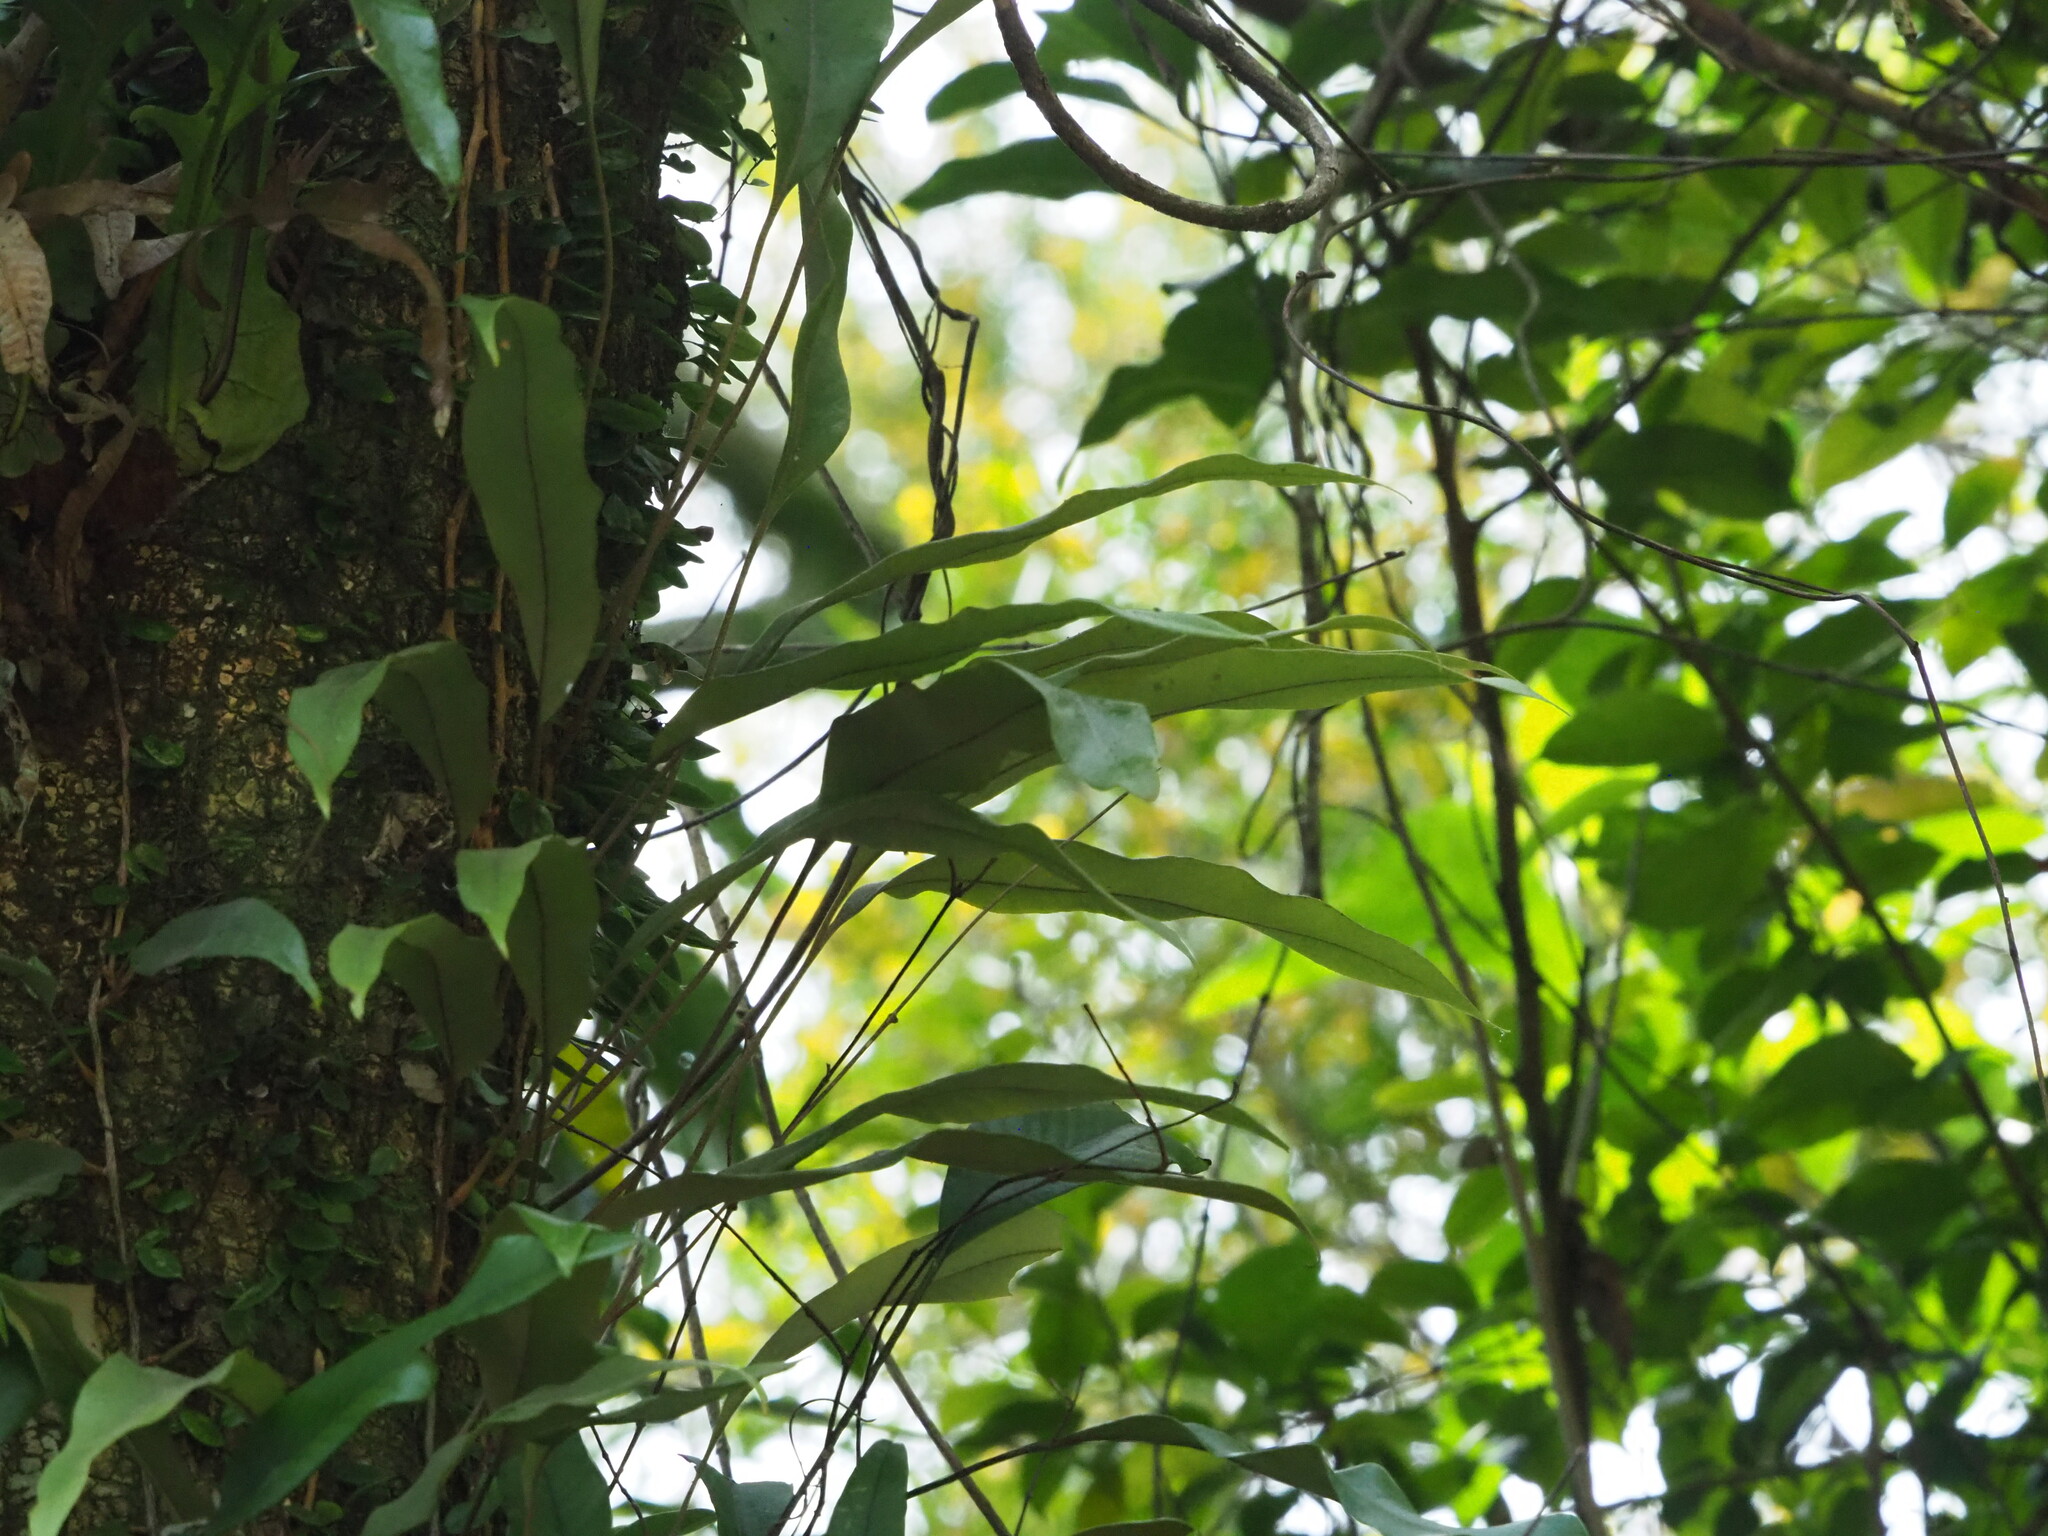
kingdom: Plantae
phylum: Tracheophyta
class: Polypodiopsida
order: Polypodiales
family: Polypodiaceae
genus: Lepisorus
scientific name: Lepisorus superficialis
